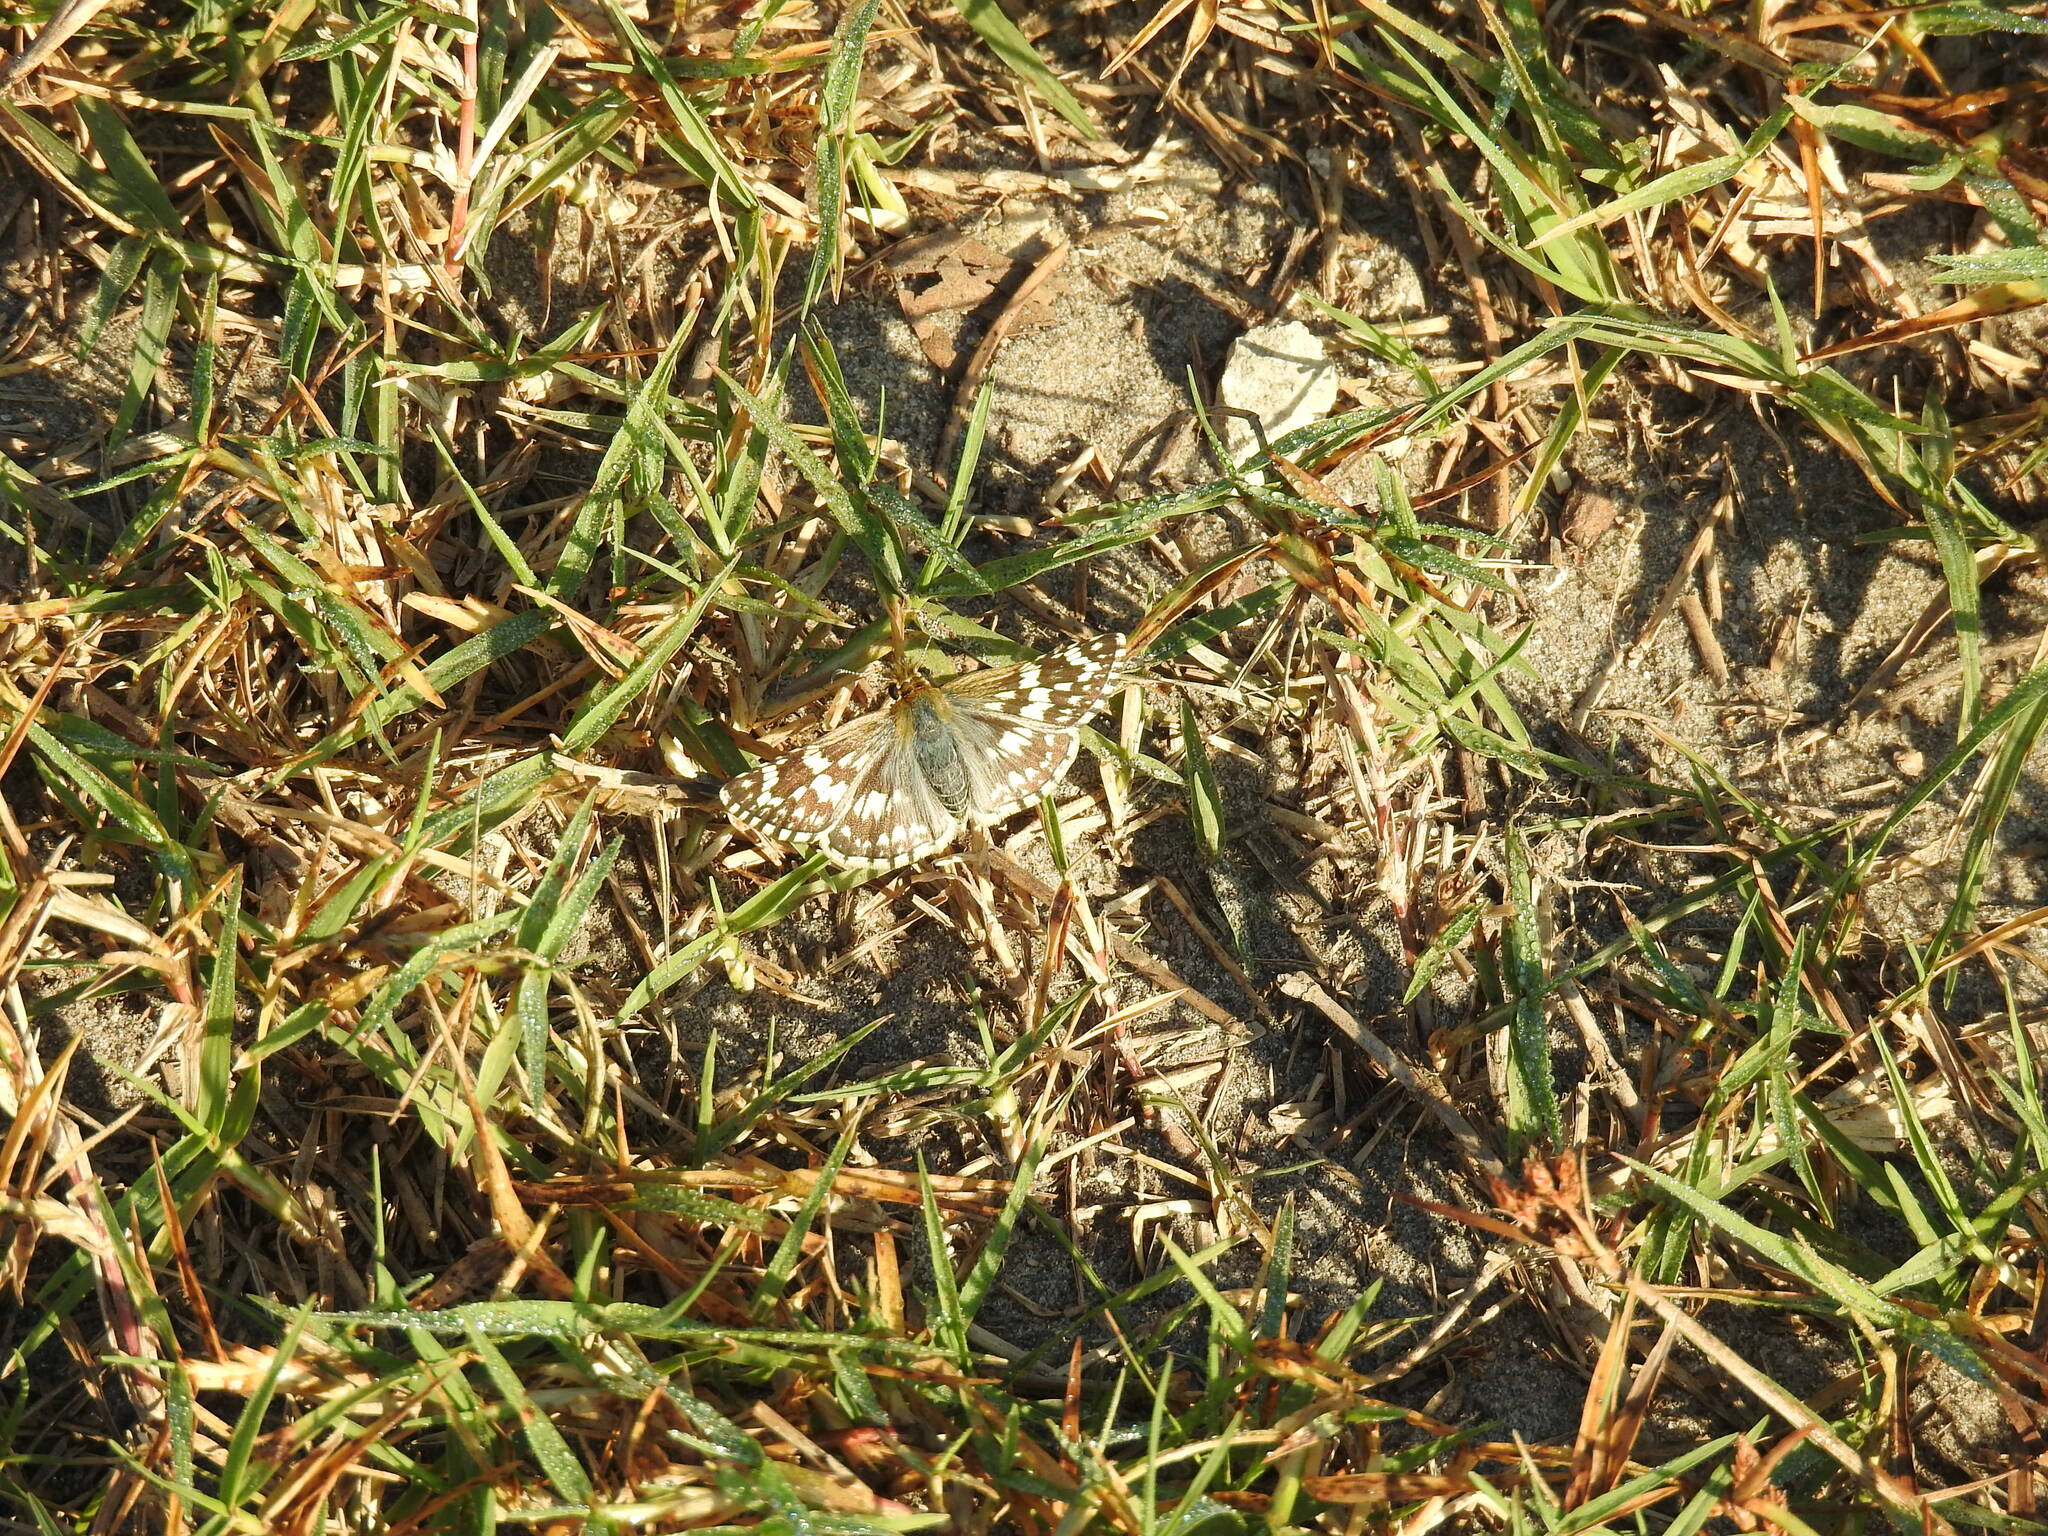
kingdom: Animalia
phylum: Arthropoda
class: Insecta
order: Lepidoptera
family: Hesperiidae
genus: Burnsius
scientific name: Burnsius albezens
